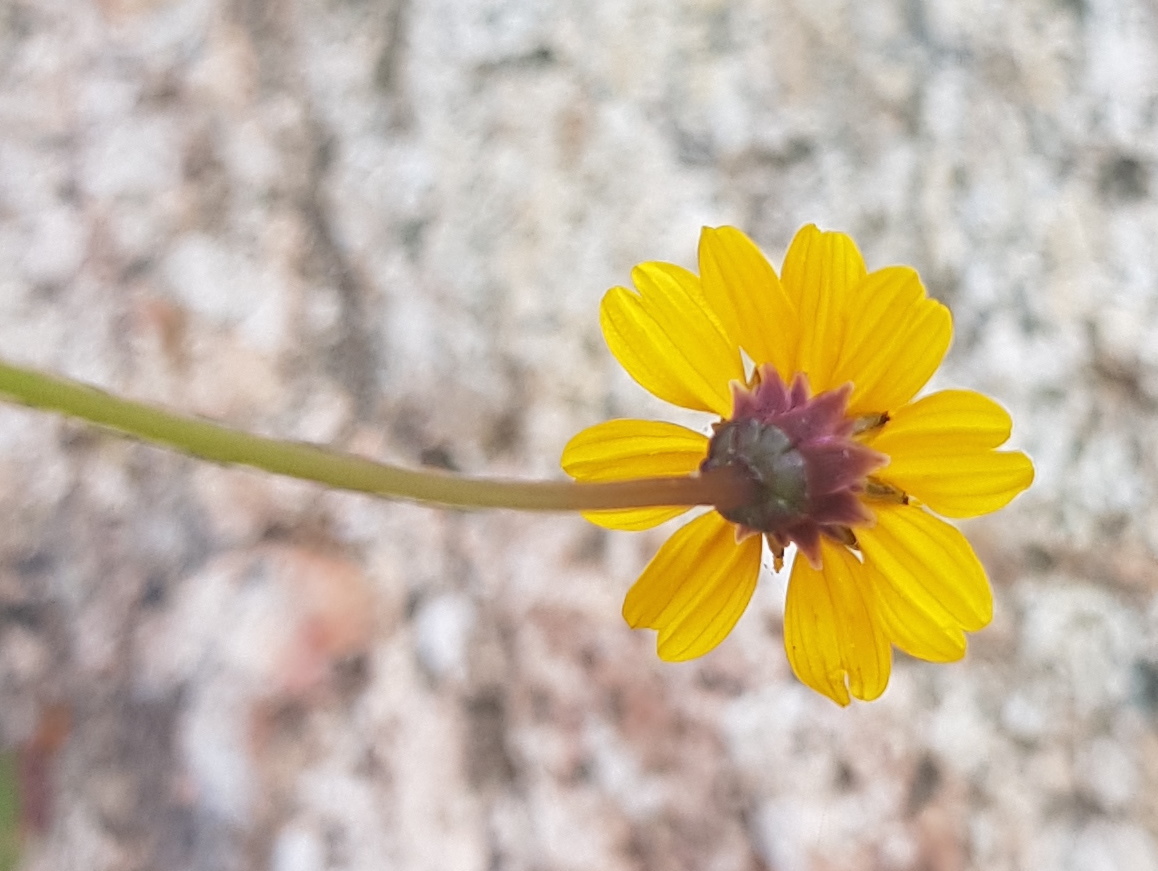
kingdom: Plantae
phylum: Tracheophyta
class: Magnoliopsida
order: Asterales
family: Asteraceae
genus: Chrysanthellum
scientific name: Chrysanthellum pilzii
